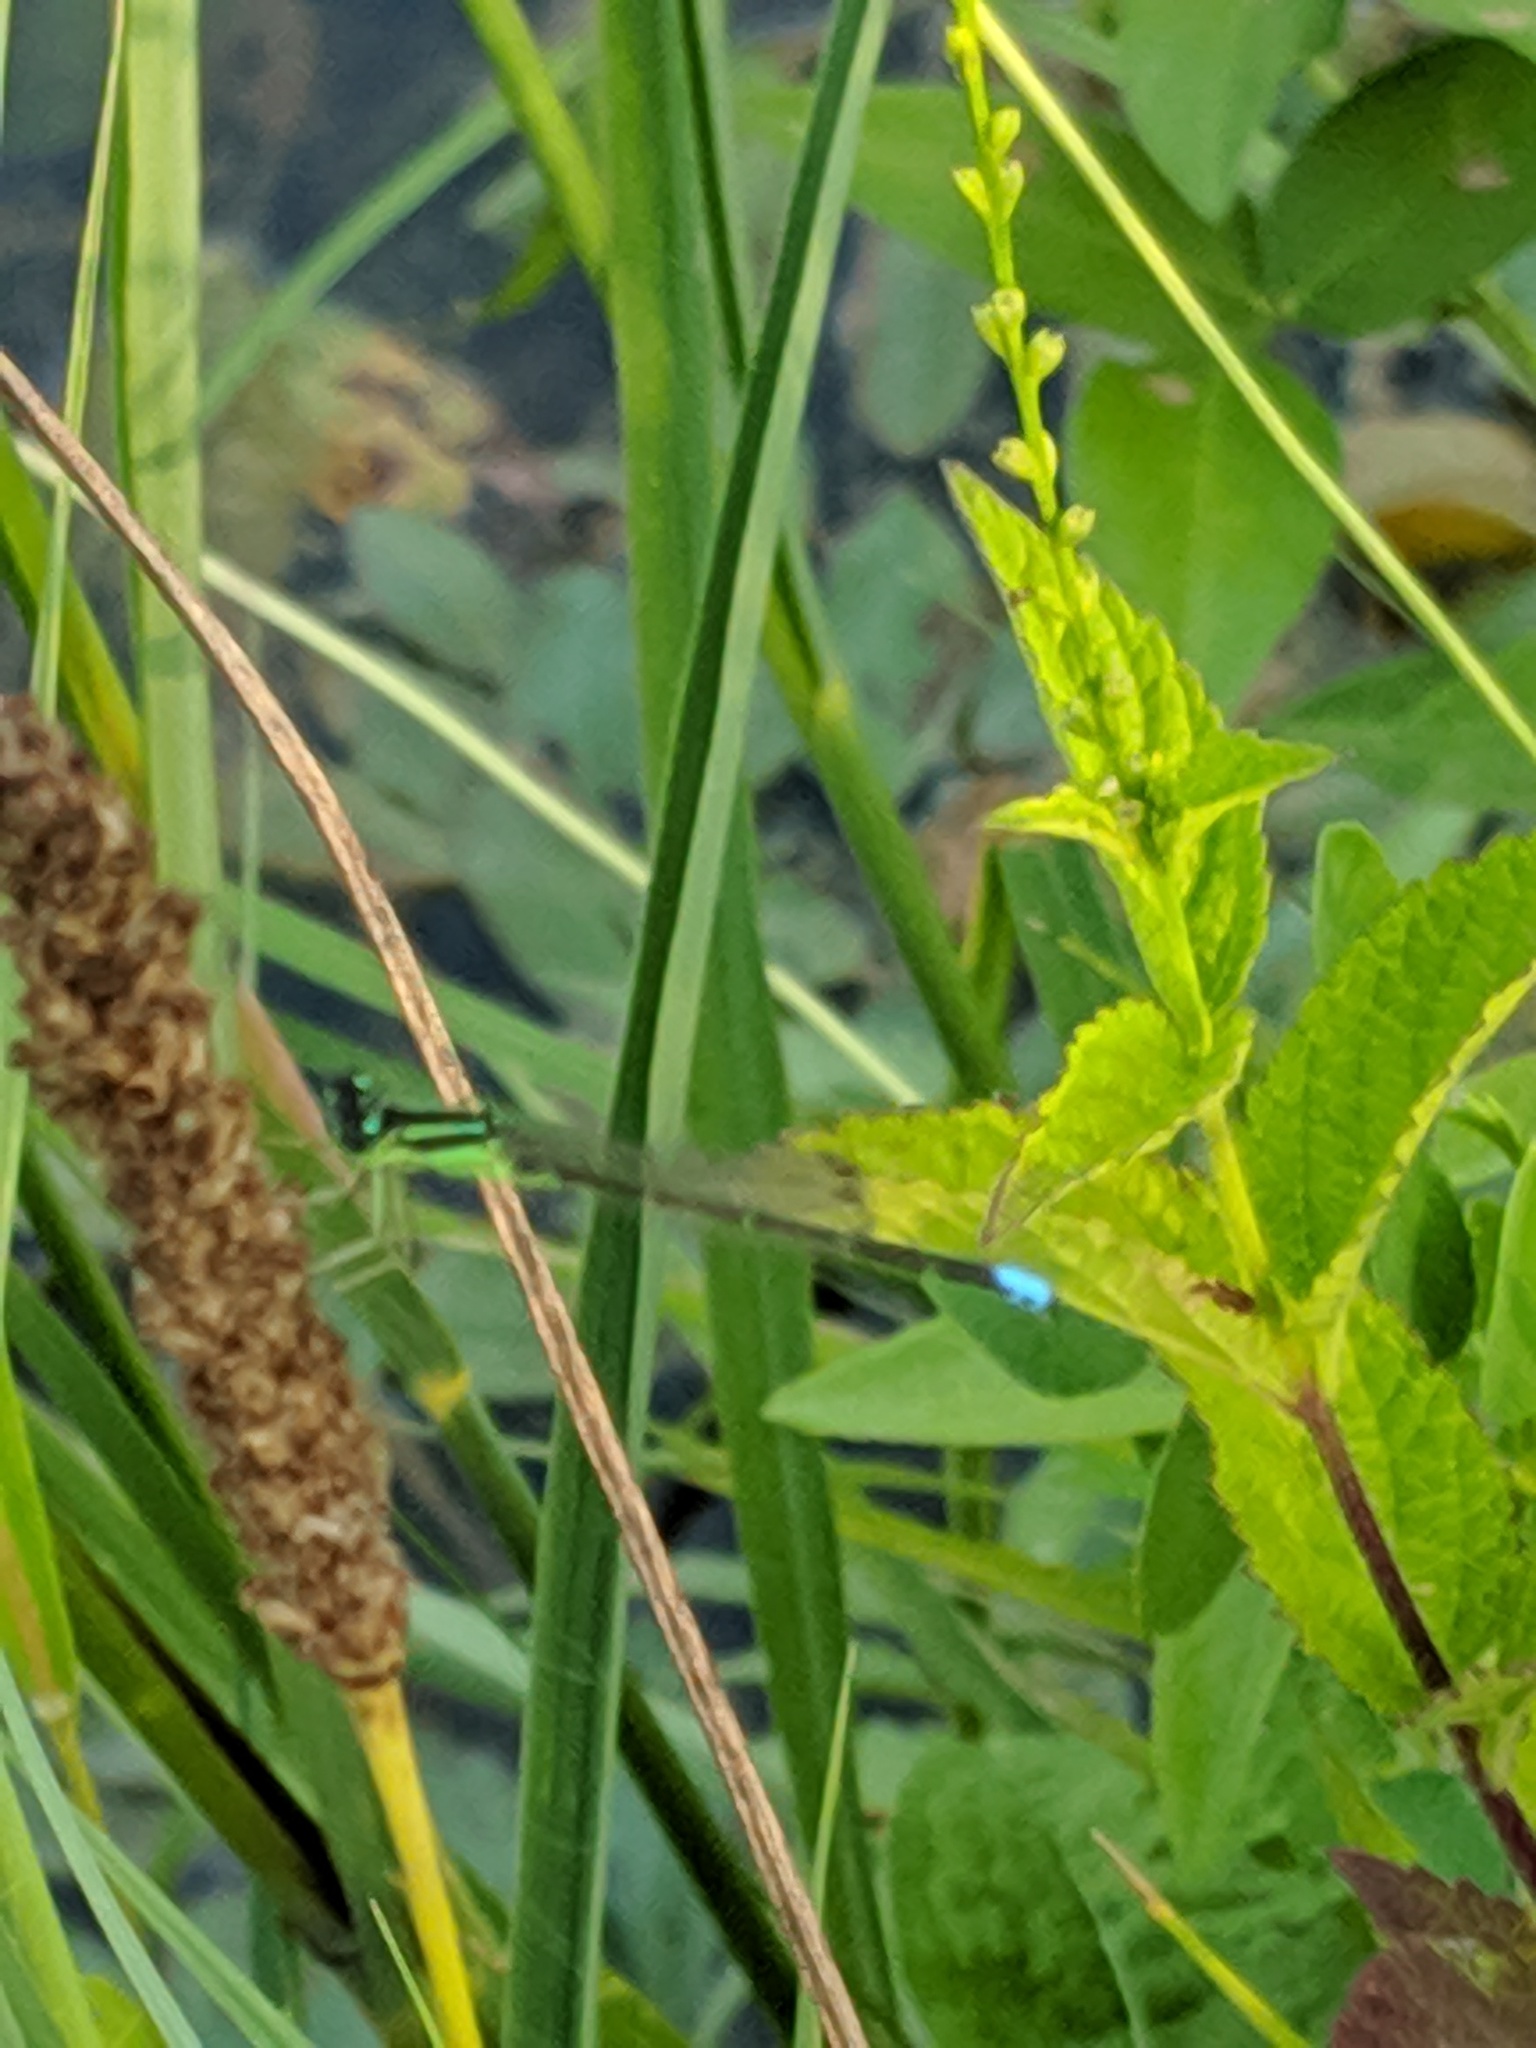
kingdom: Animalia
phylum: Arthropoda
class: Insecta
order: Odonata
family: Coenagrionidae
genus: Ischnura
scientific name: Ischnura verticalis
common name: Eastern forktail
